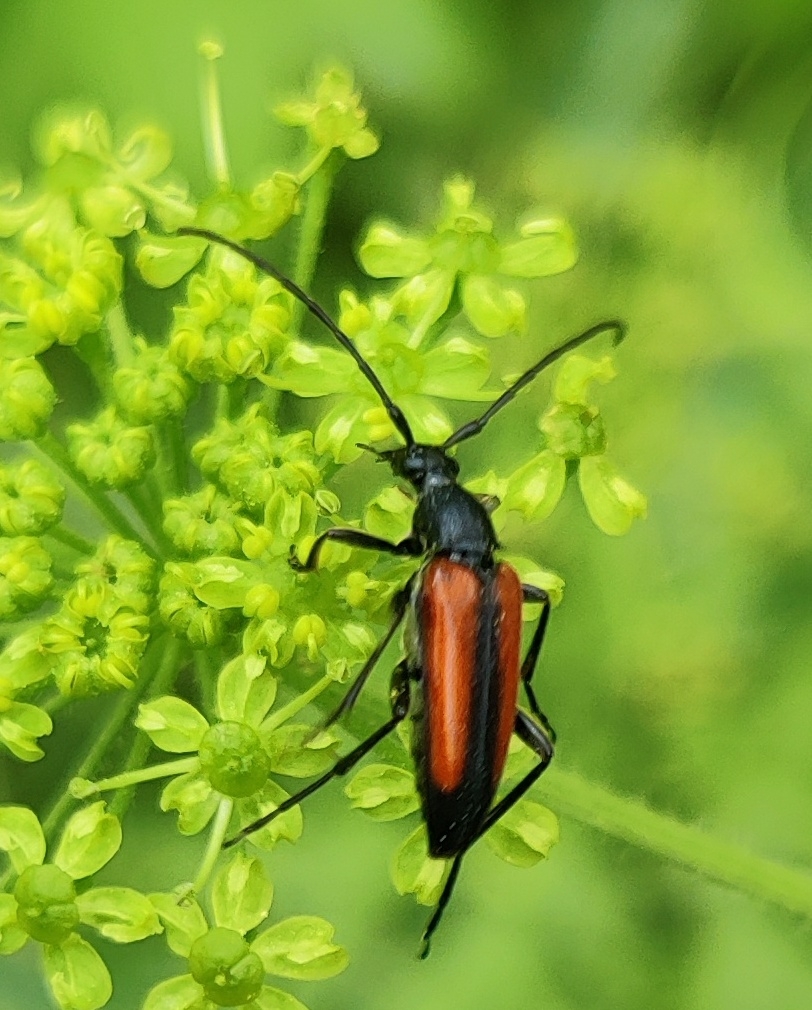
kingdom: Animalia
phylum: Arthropoda
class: Insecta
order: Coleoptera
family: Cerambycidae
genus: Stenurella
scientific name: Stenurella melanura
